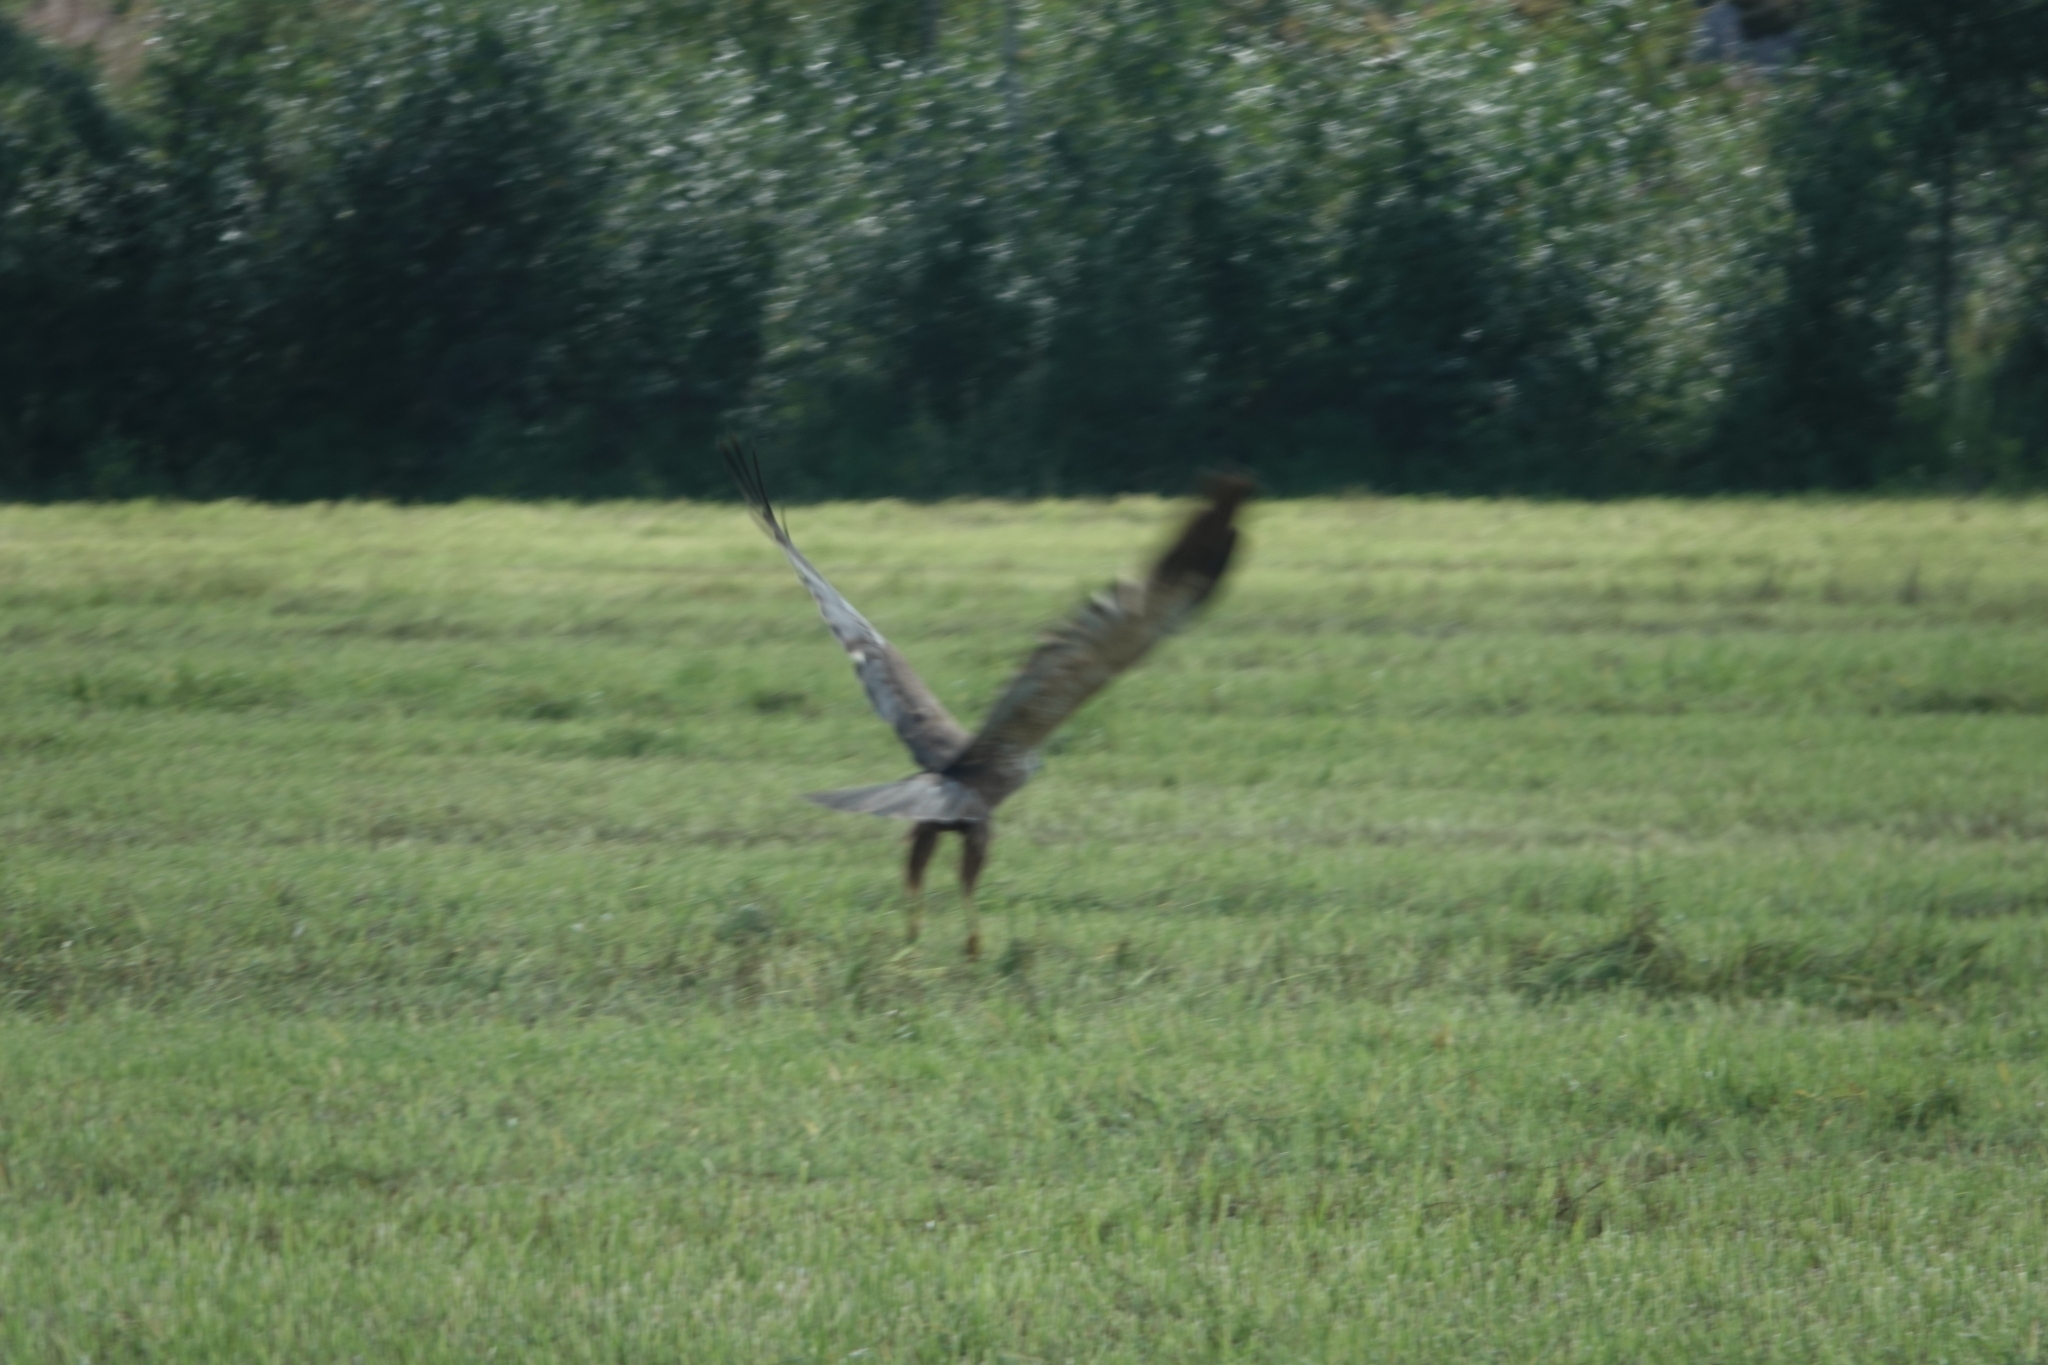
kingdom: Animalia
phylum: Chordata
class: Aves
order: Accipitriformes
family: Accipitridae
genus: Circus
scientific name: Circus aeruginosus
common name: Western marsh harrier
